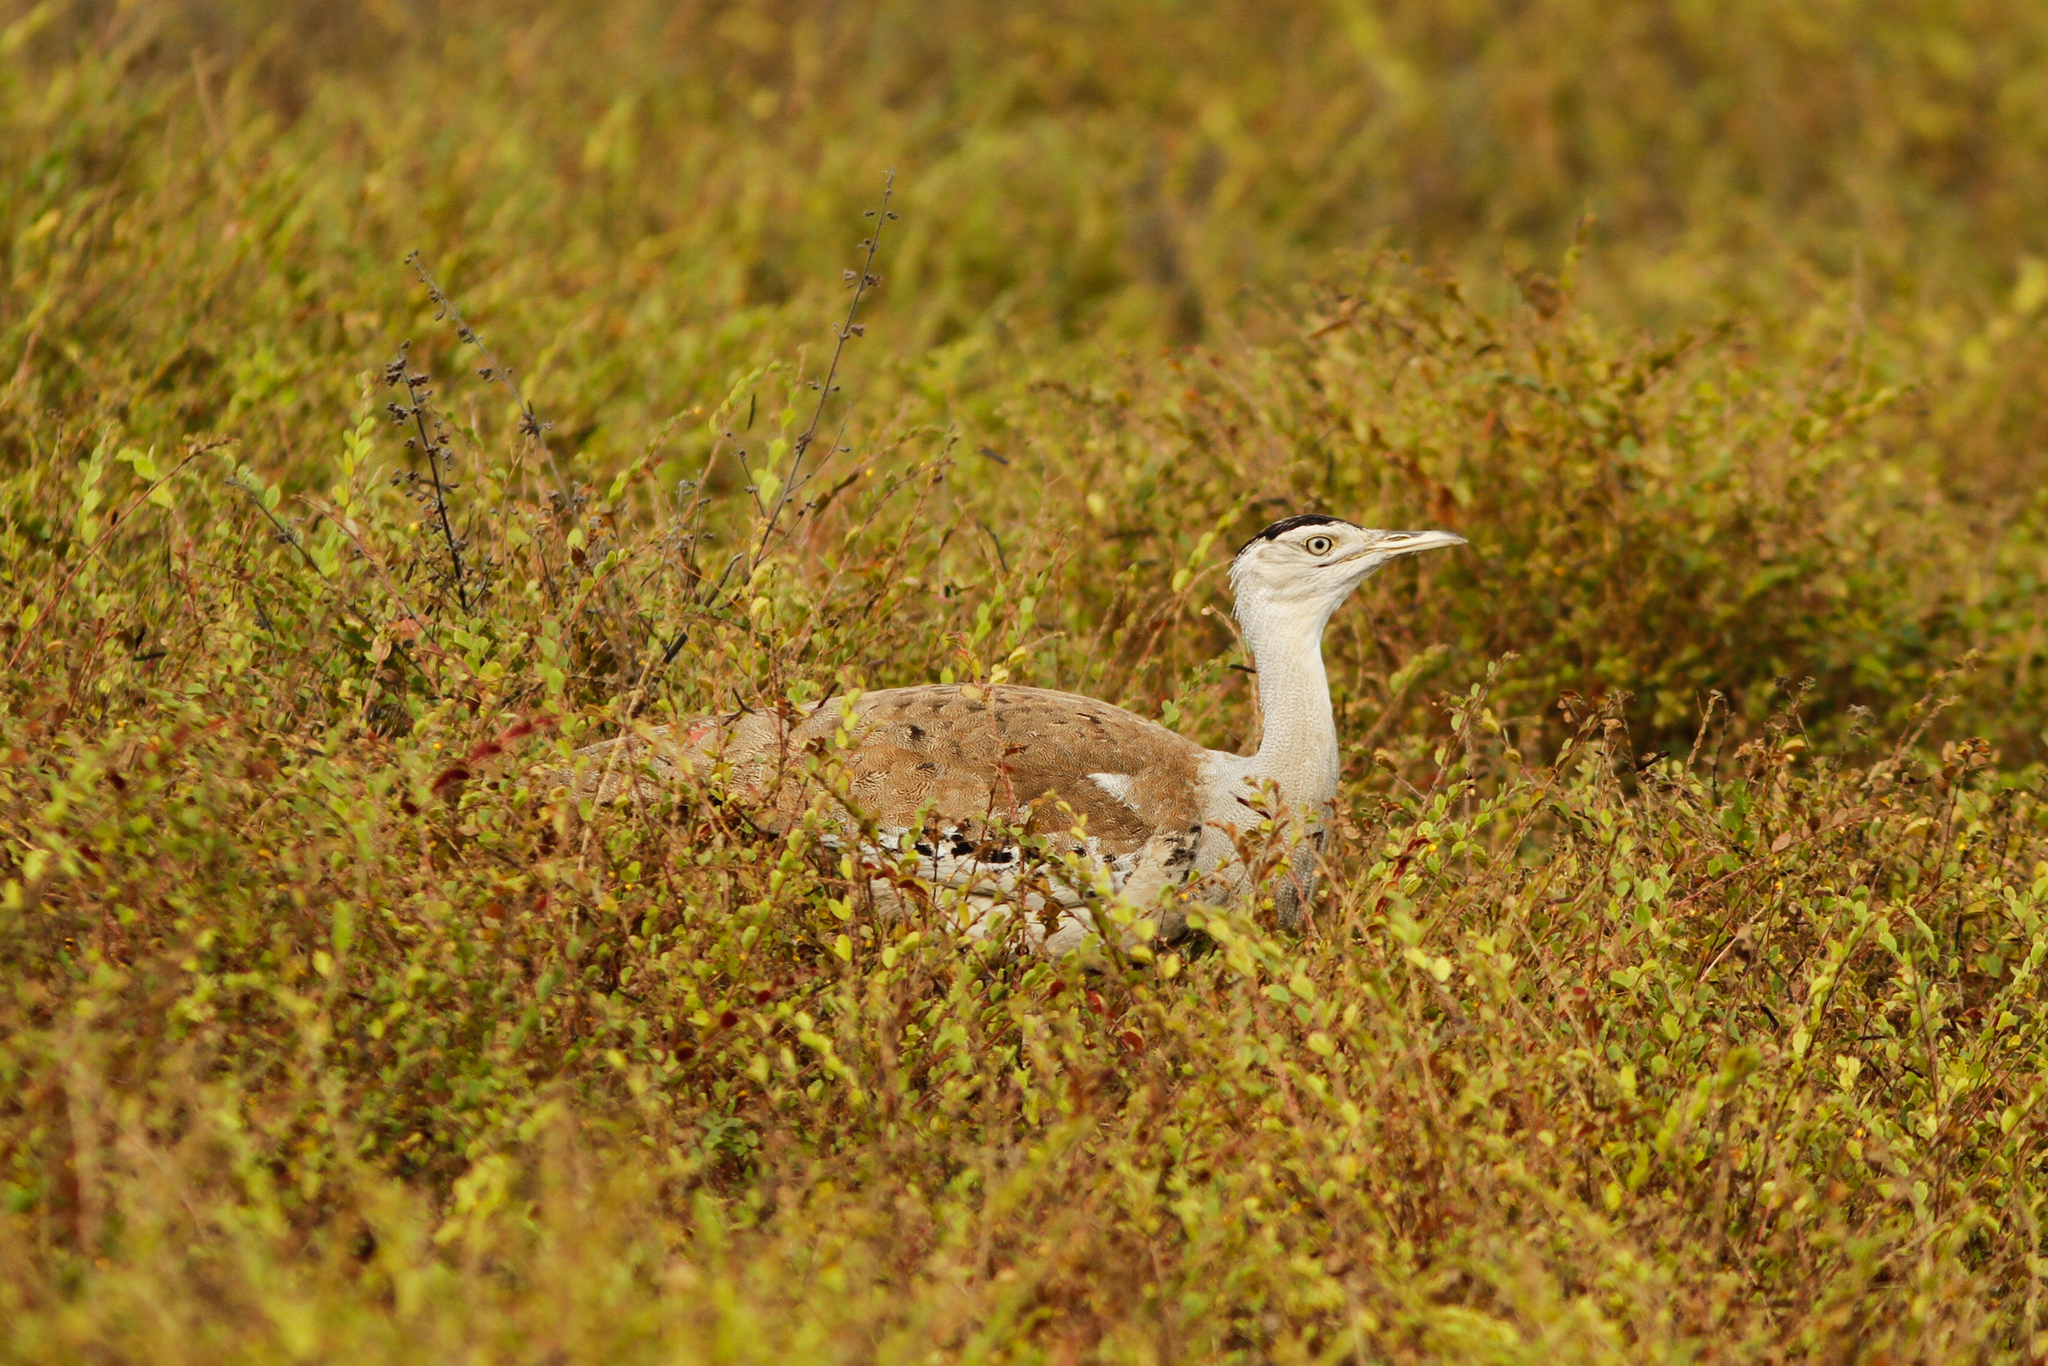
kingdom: Animalia
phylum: Chordata
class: Aves
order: Otidiformes
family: Otididae
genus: Ardeotis
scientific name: Ardeotis australis
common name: Australian bustard
